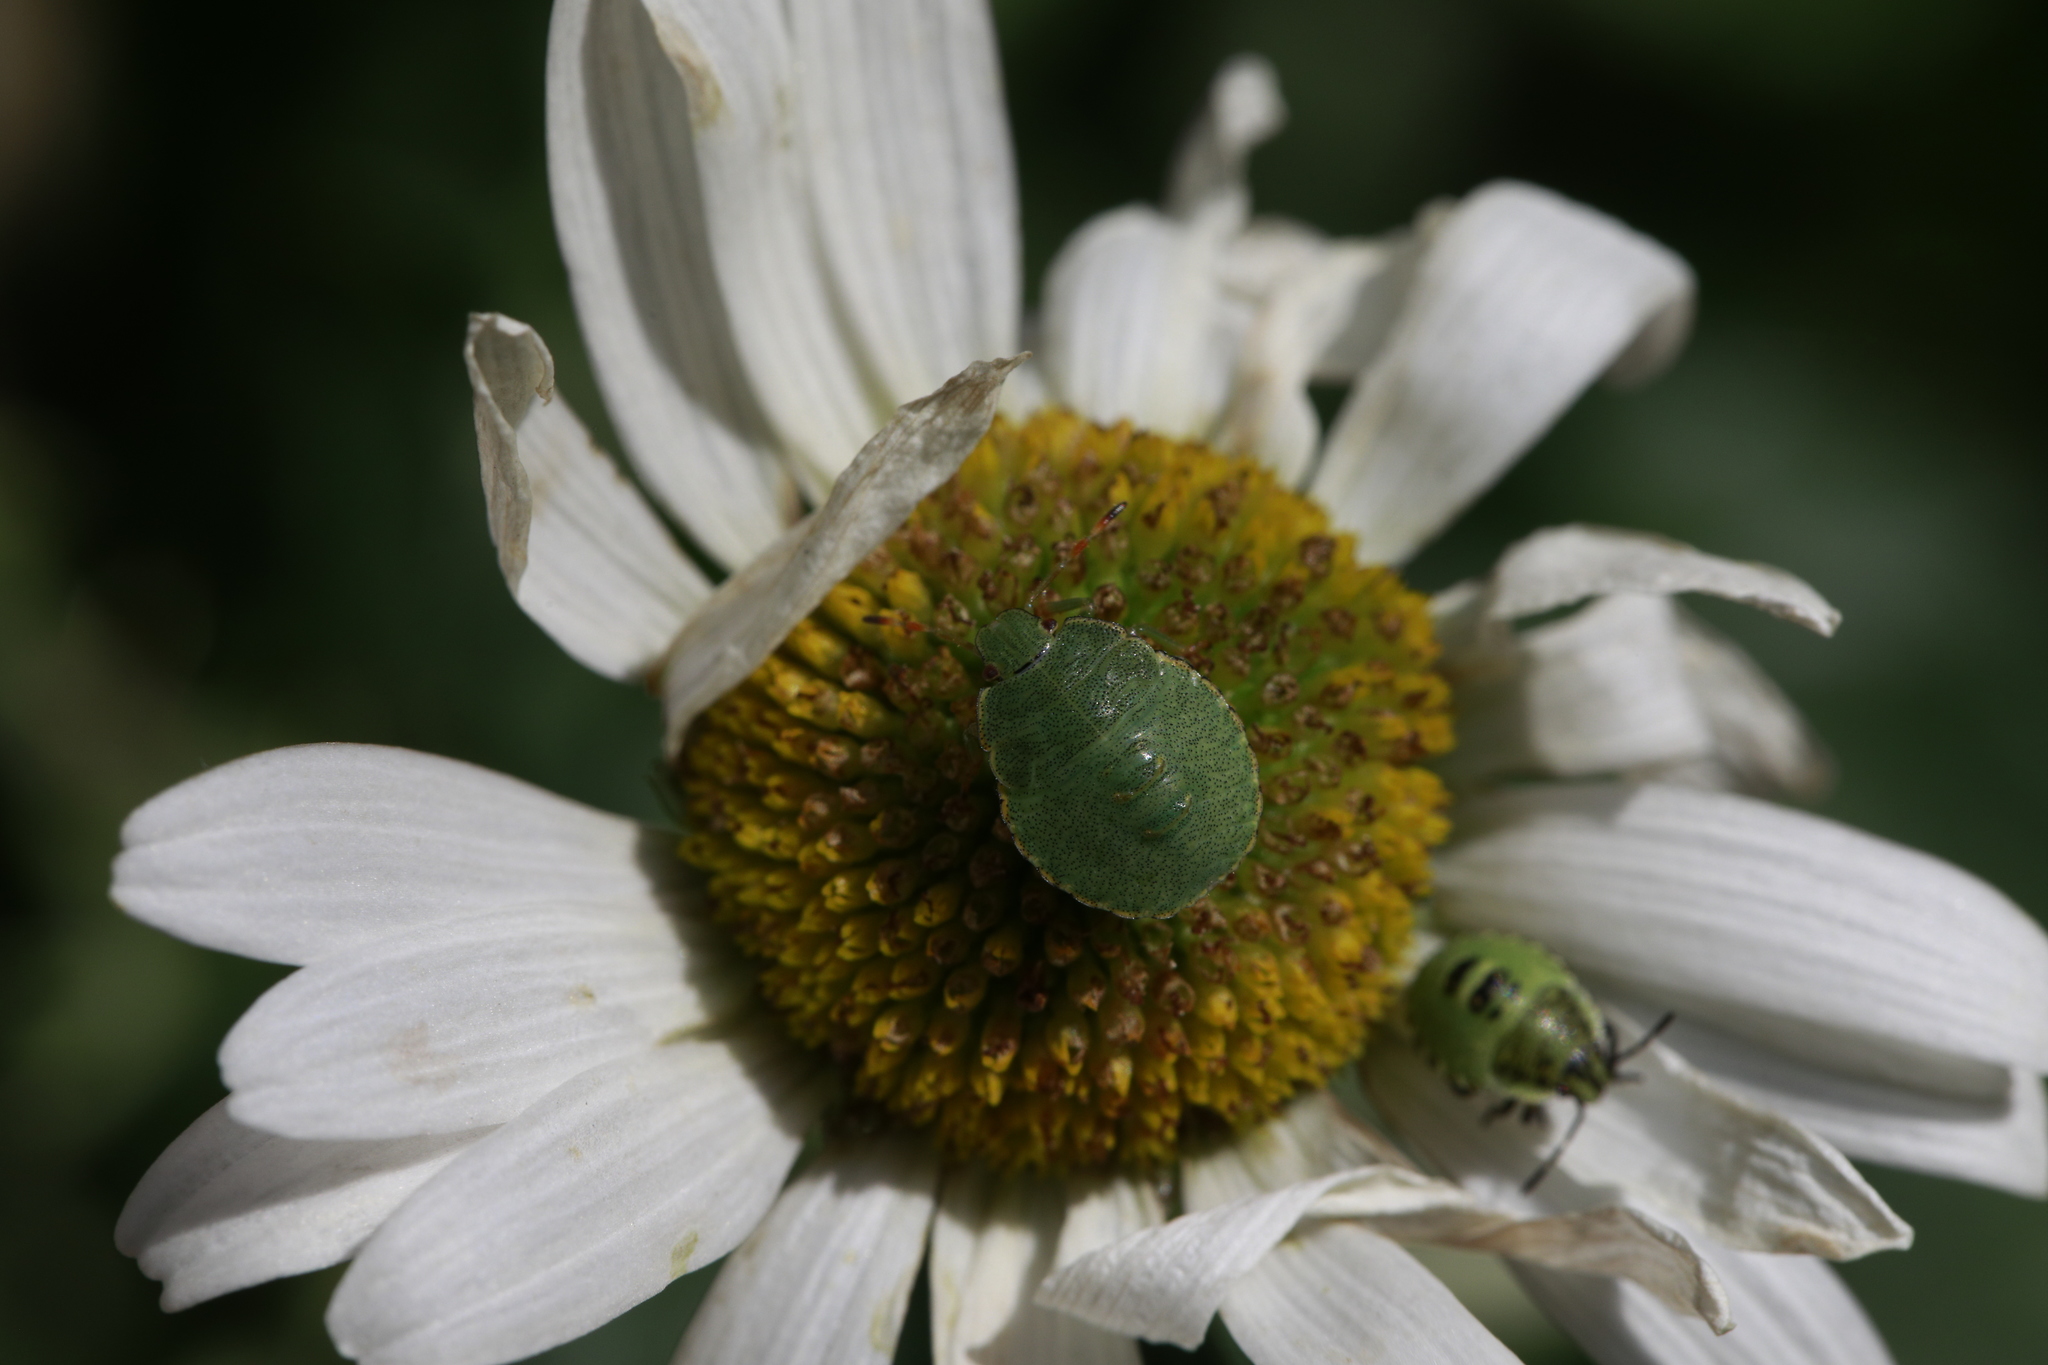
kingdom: Animalia
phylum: Arthropoda
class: Insecta
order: Hemiptera
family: Pentatomidae
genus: Palomena
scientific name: Palomena prasina
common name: Green shieldbug
